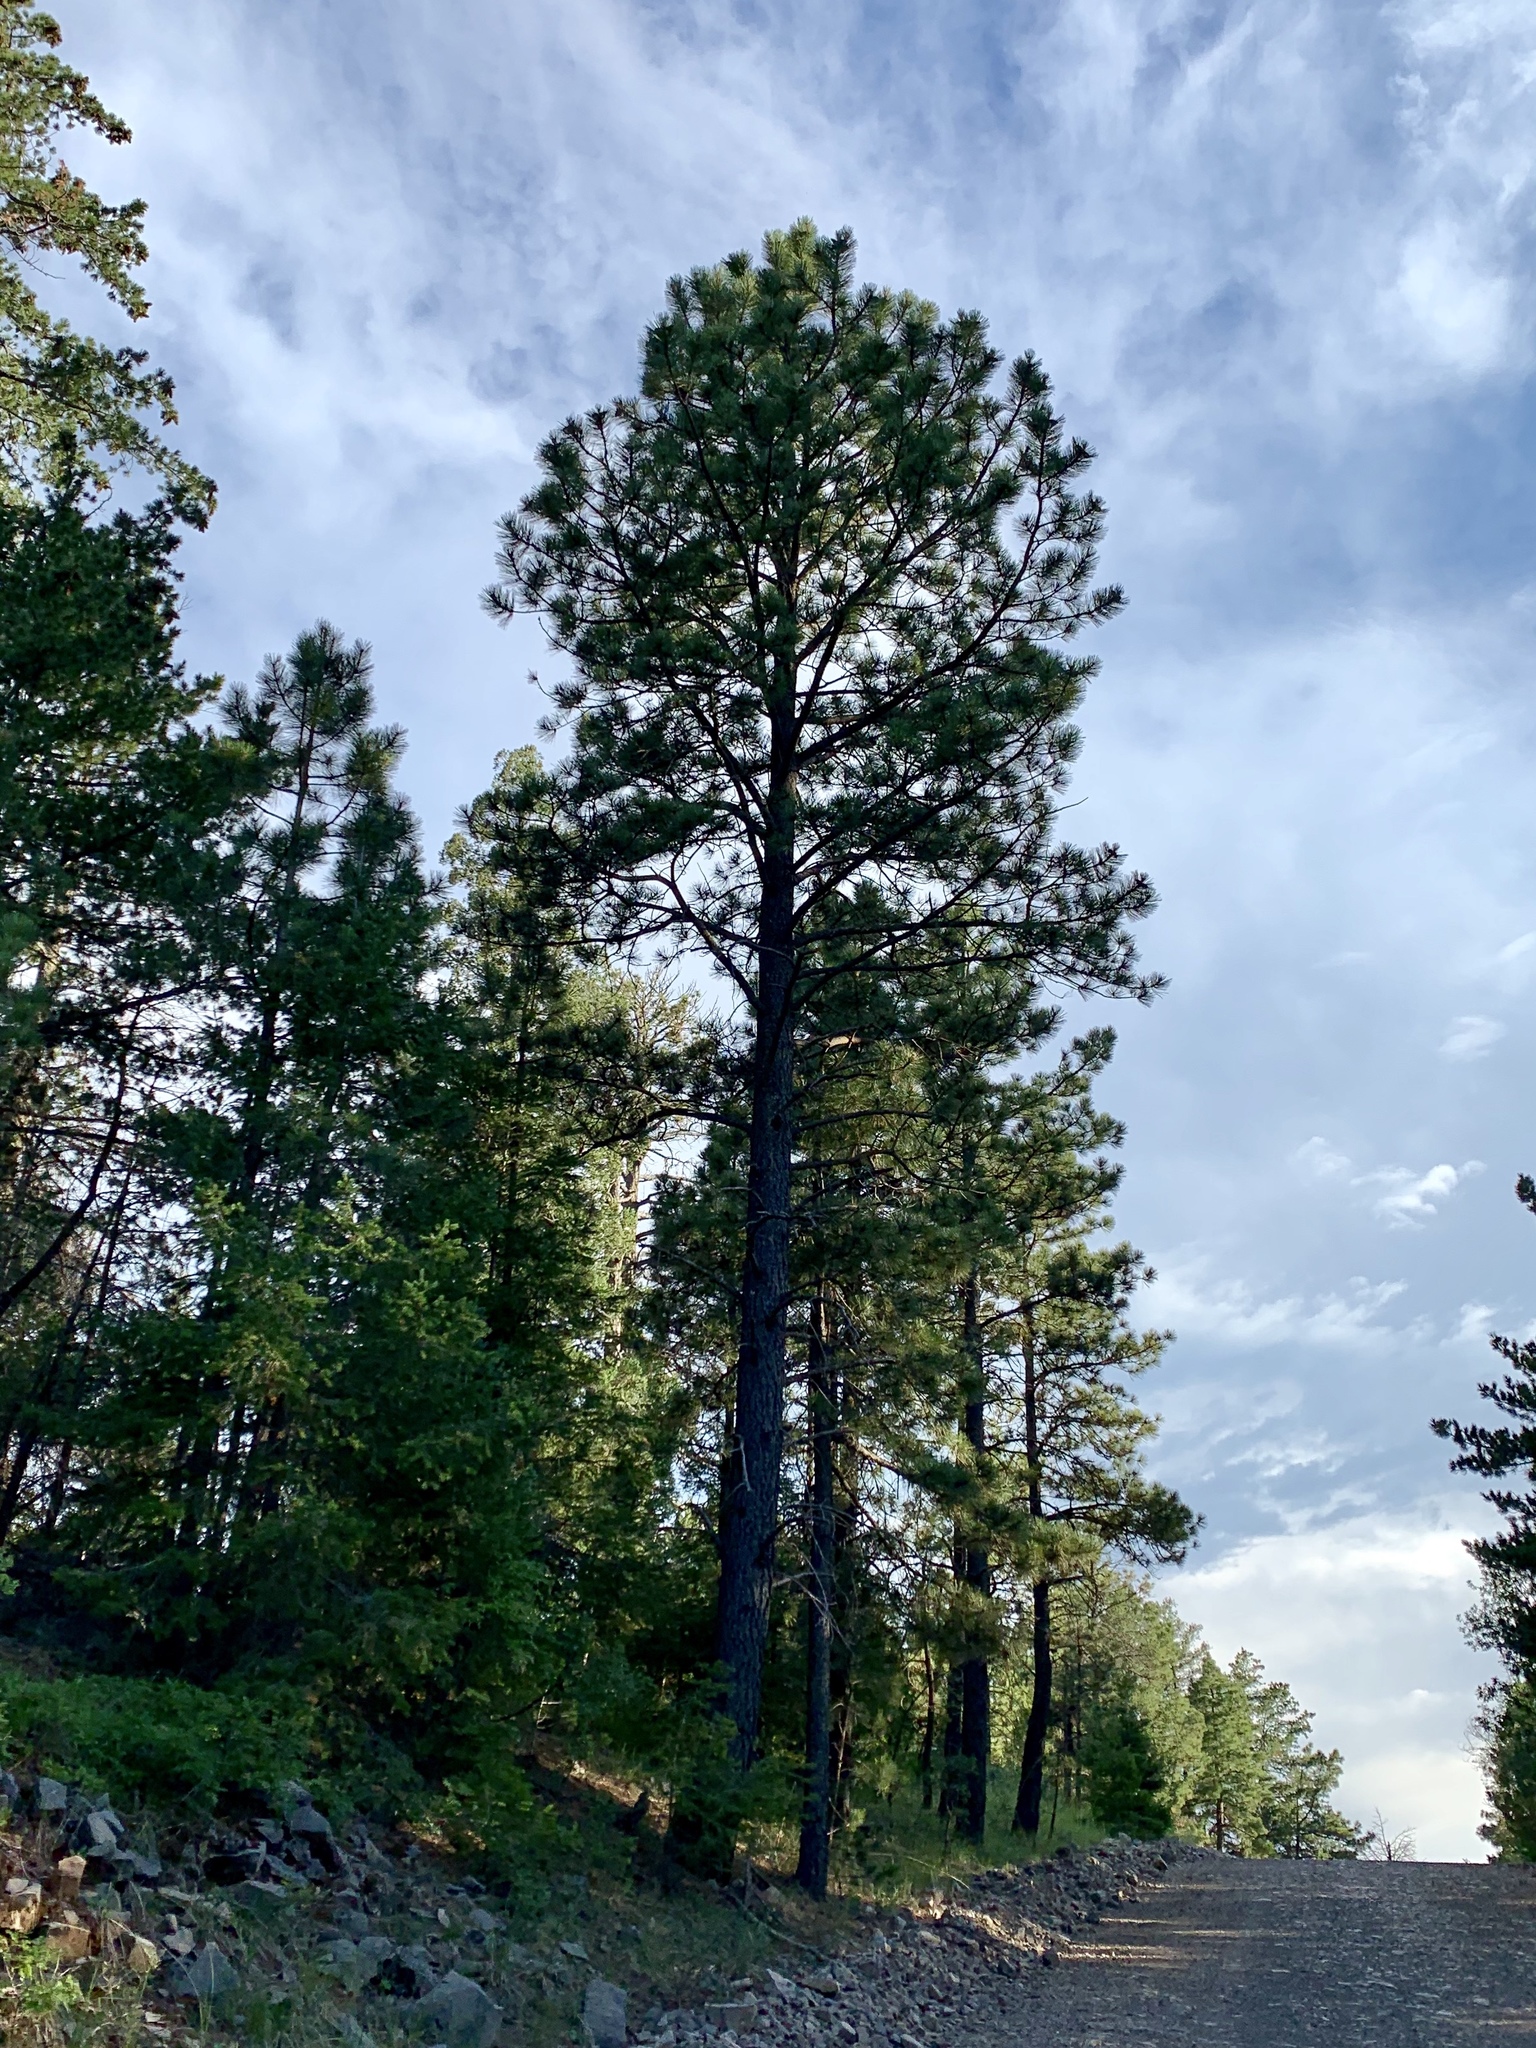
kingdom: Plantae
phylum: Tracheophyta
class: Pinopsida
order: Pinales
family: Pinaceae
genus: Pinus
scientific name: Pinus ponderosa
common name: Western yellow-pine
